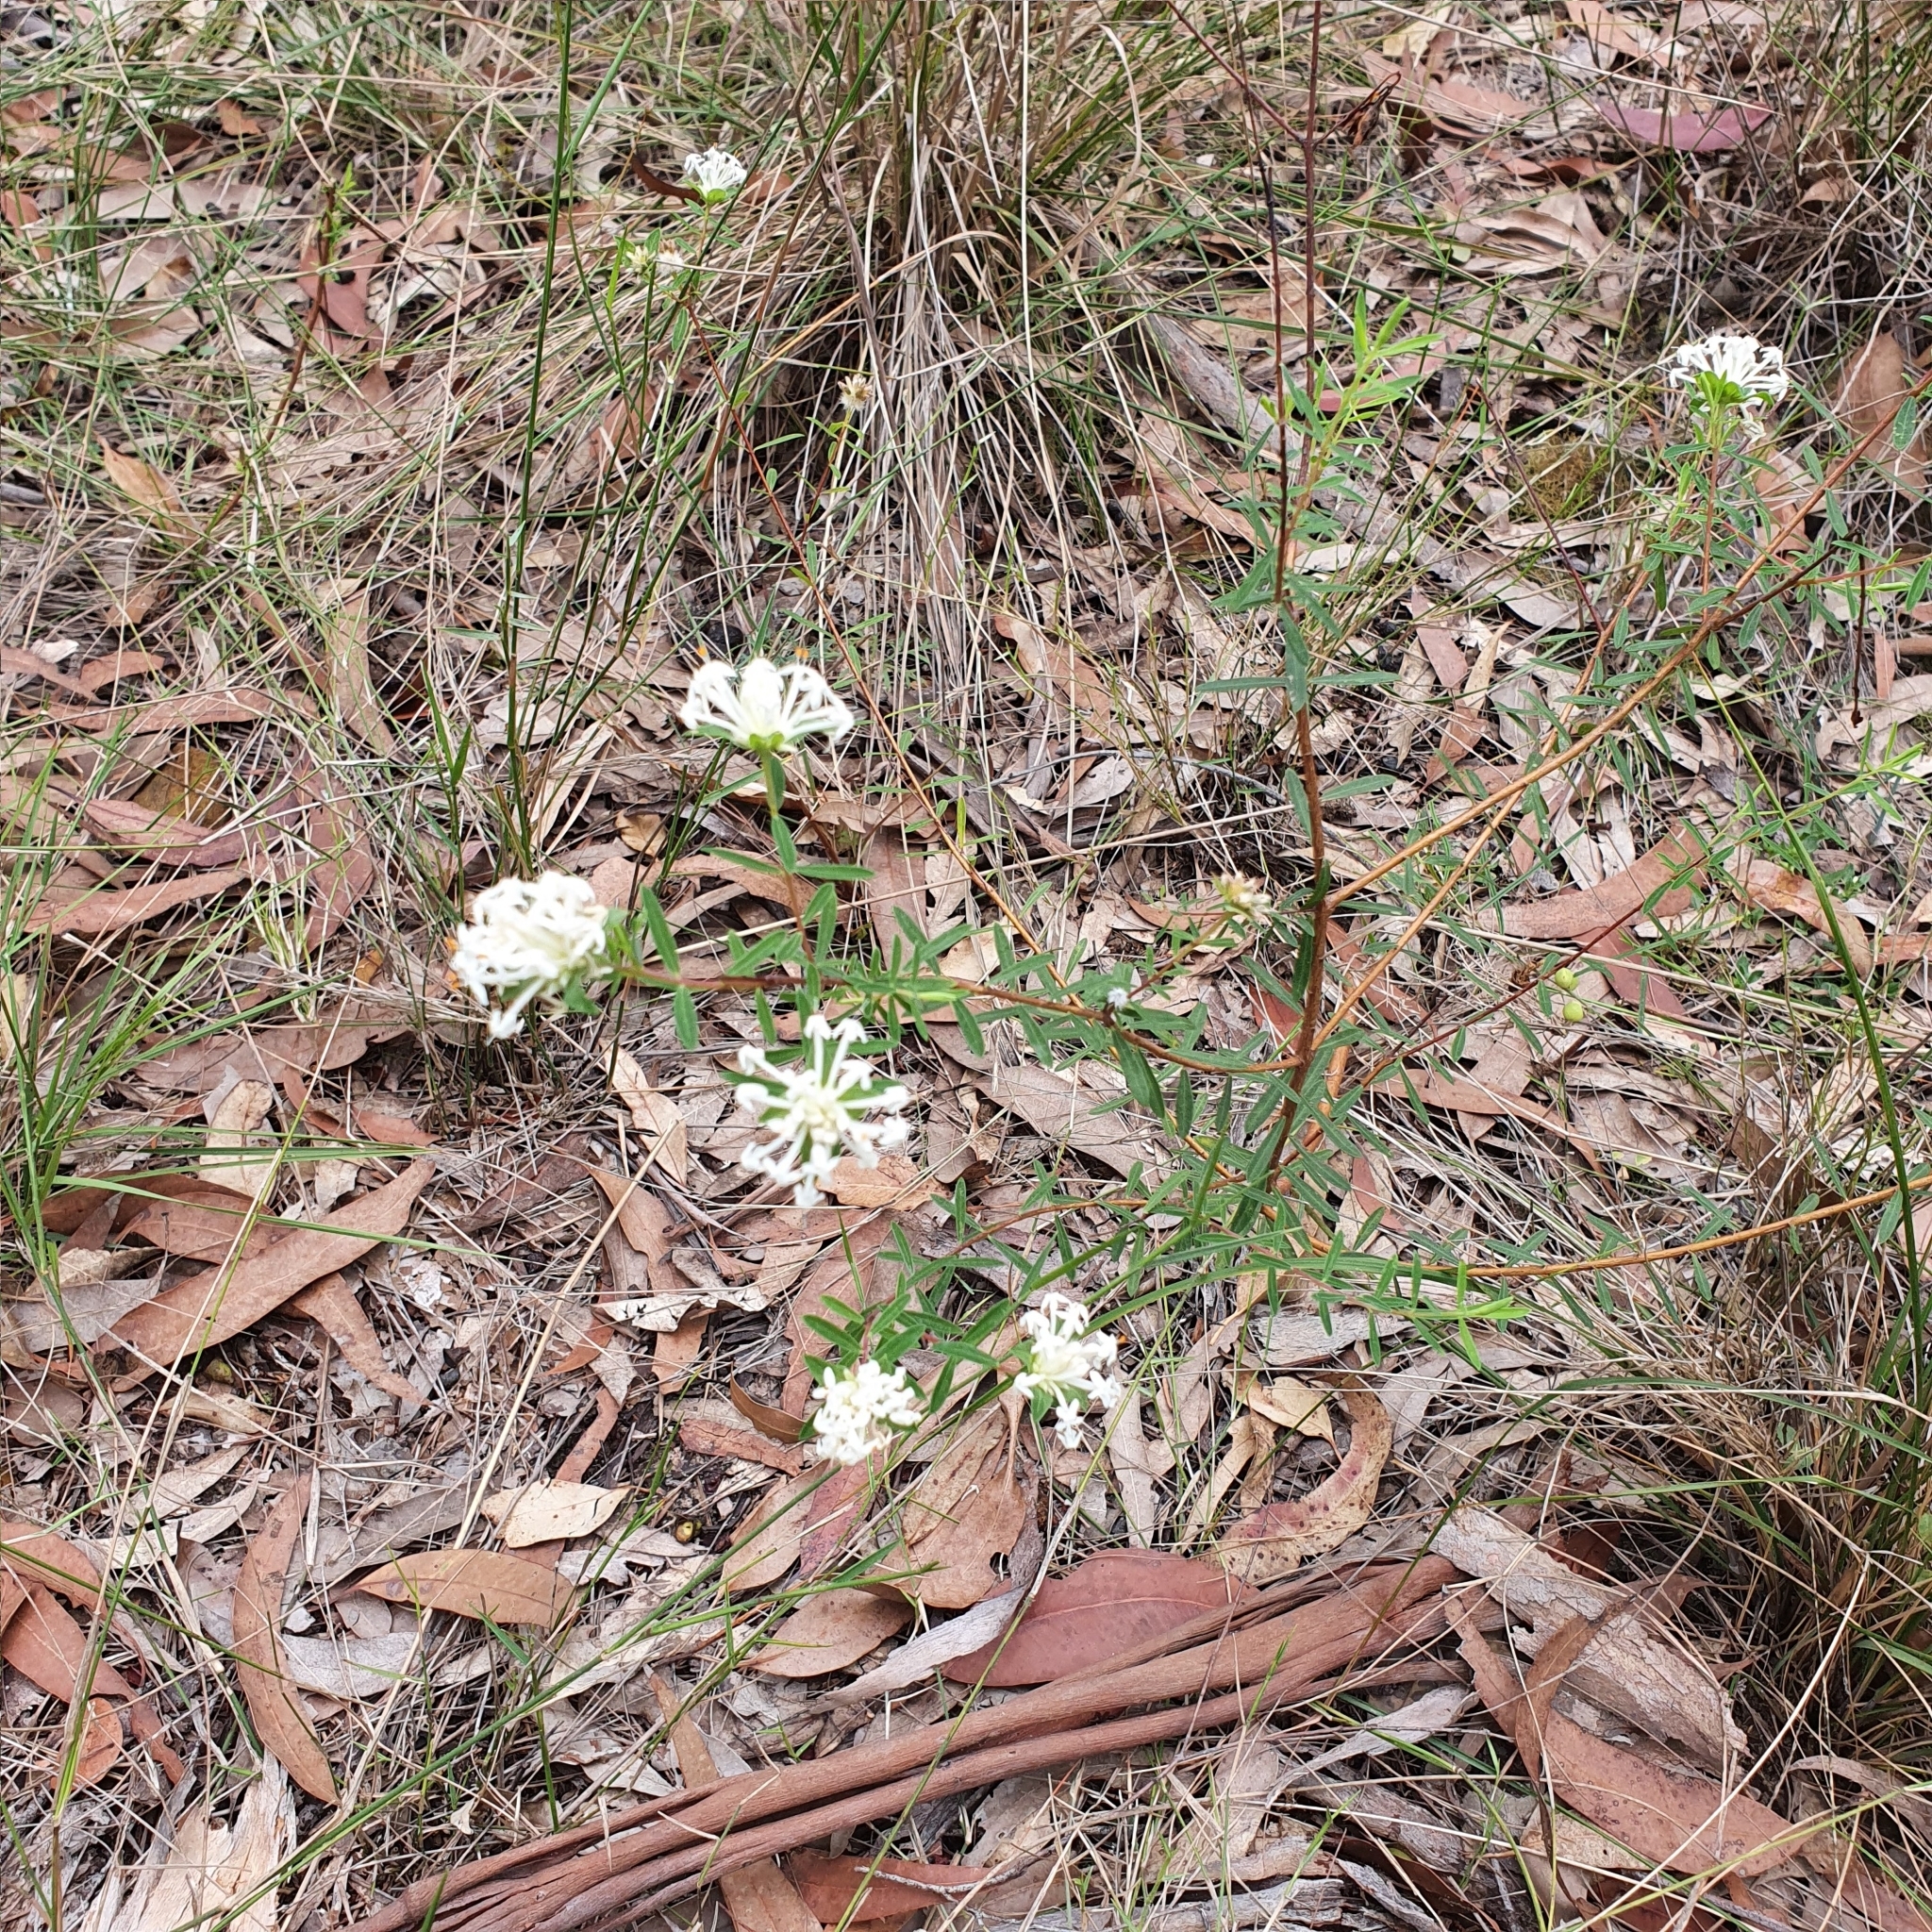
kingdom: Plantae
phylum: Tracheophyta
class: Magnoliopsida
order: Malvales
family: Thymelaeaceae
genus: Pimelea
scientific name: Pimelea linifolia
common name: Queen-of-the-bush
